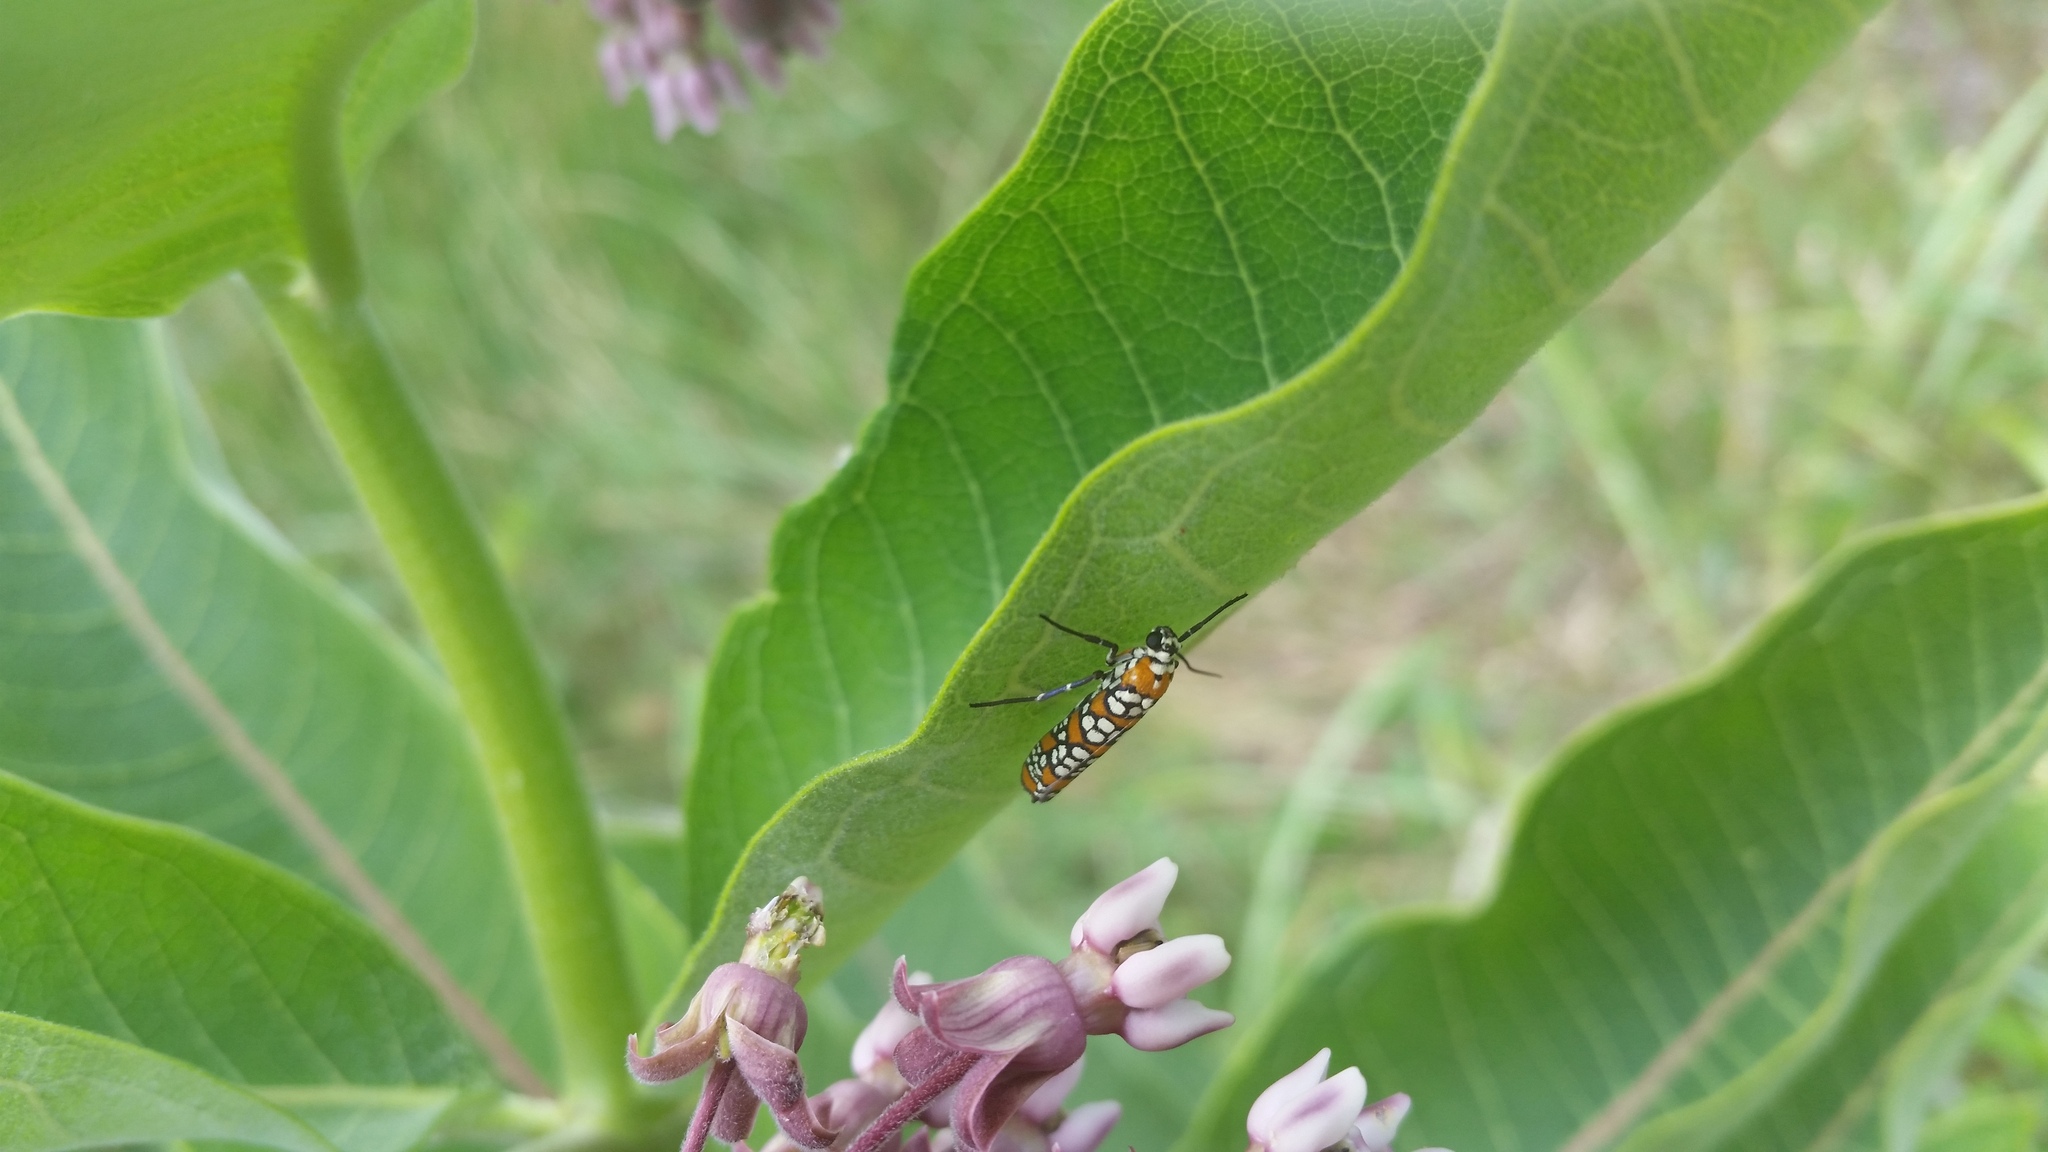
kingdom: Animalia
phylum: Arthropoda
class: Insecta
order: Lepidoptera
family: Attevidae
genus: Atteva
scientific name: Atteva punctella
